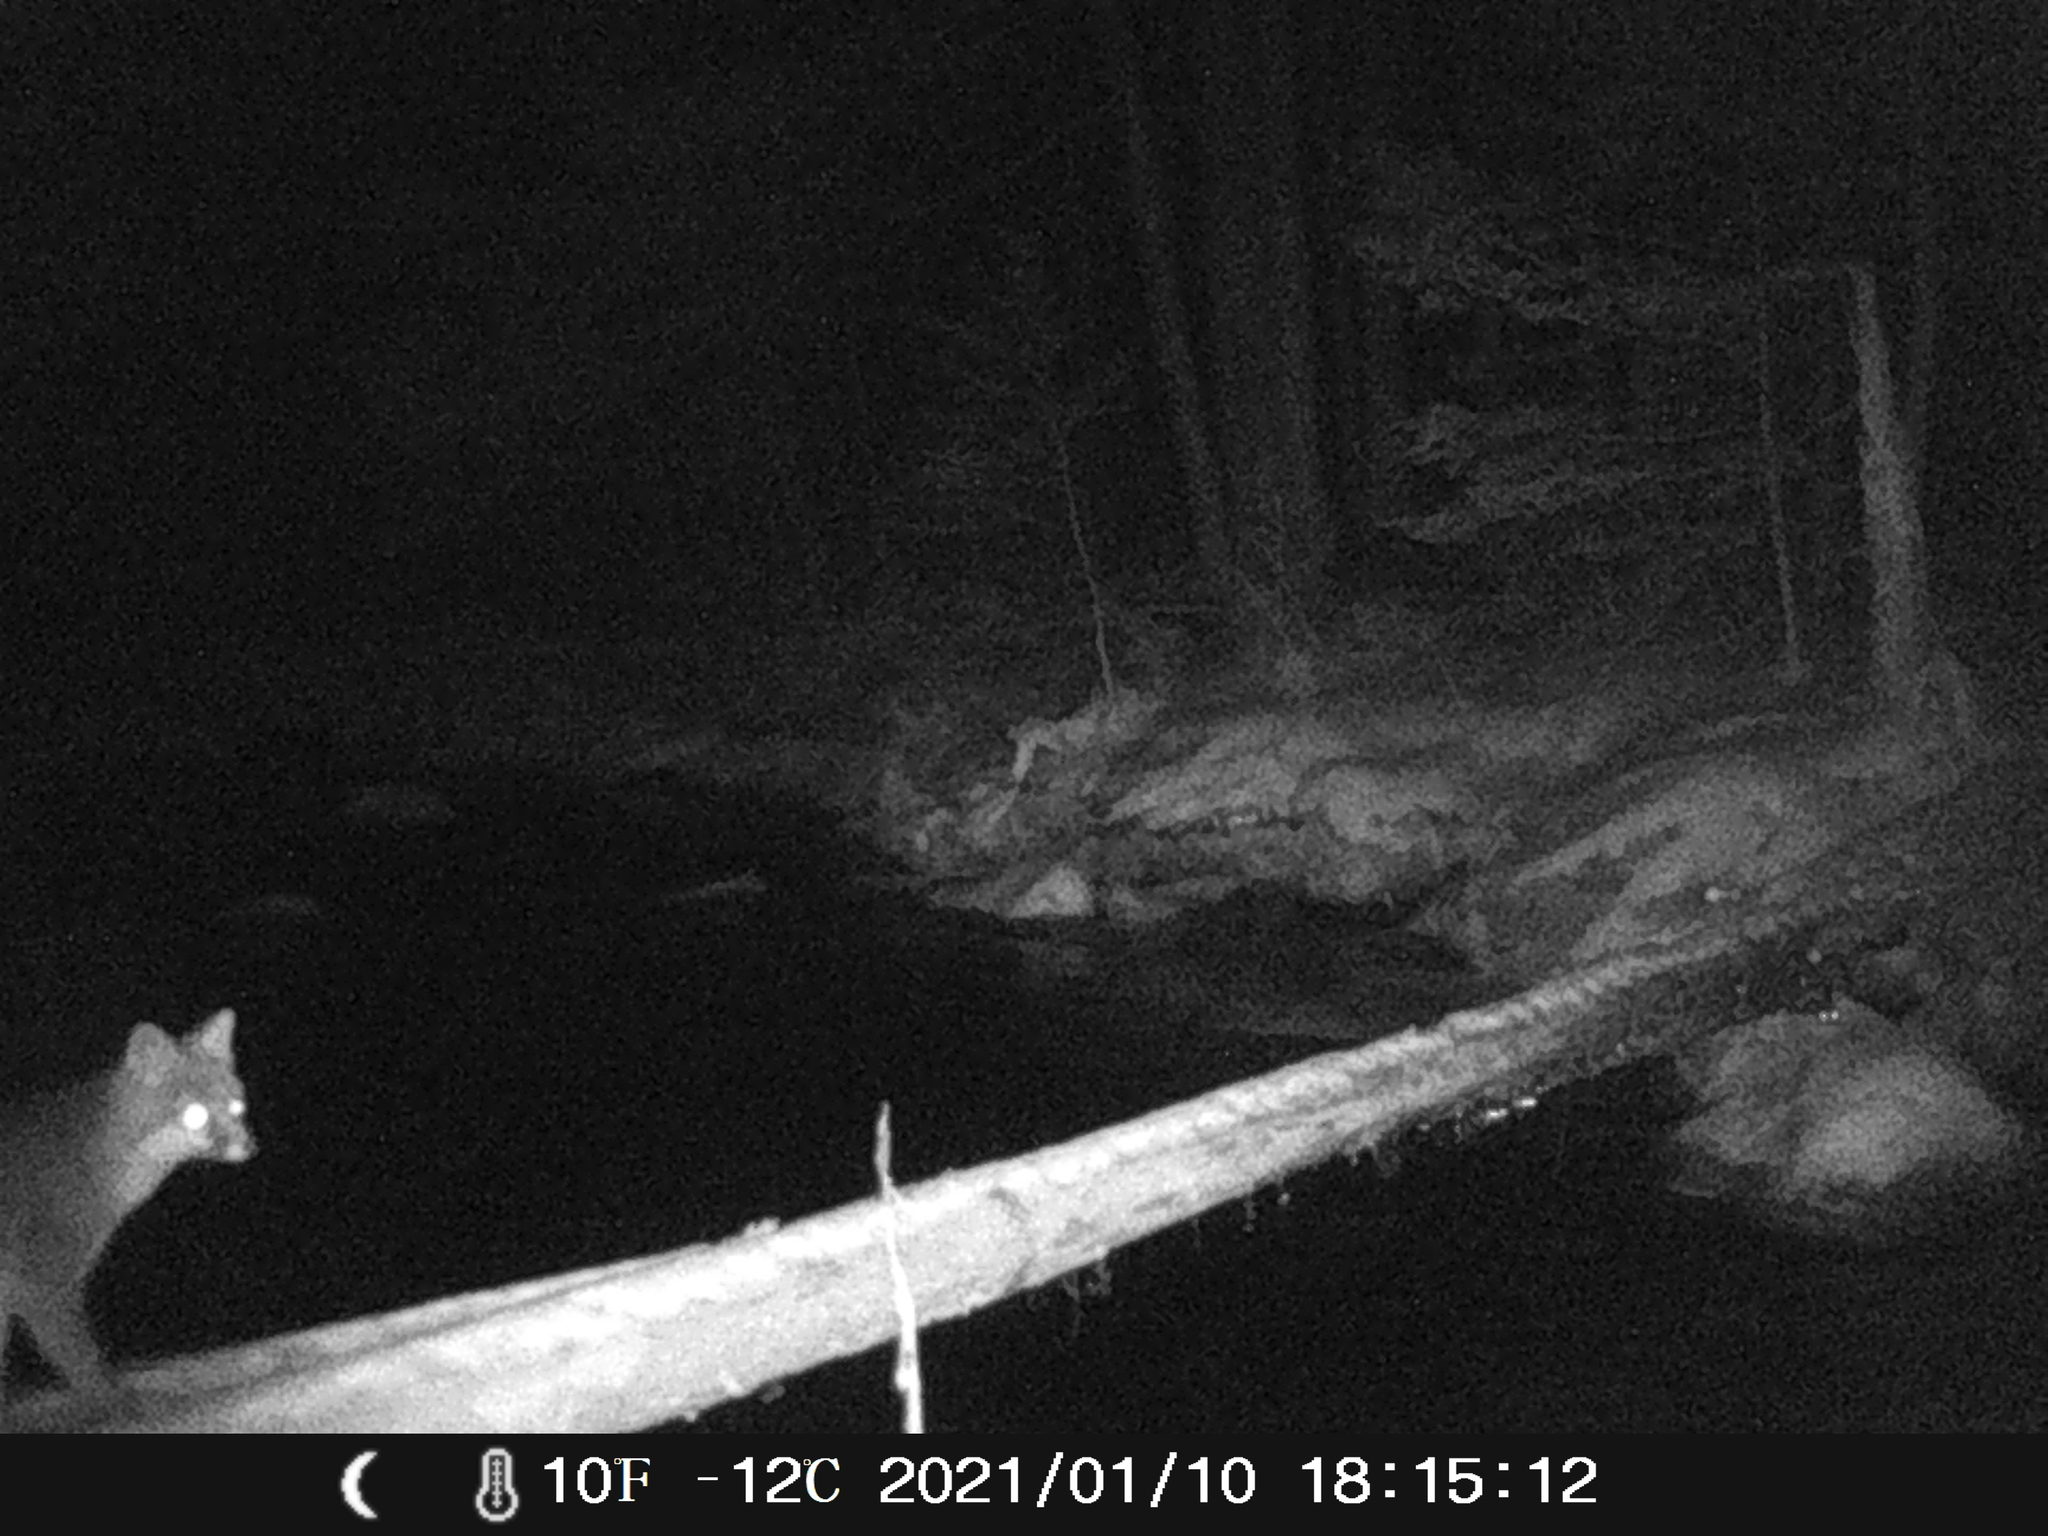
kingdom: Animalia
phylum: Chordata
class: Mammalia
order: Carnivora
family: Canidae
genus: Urocyon
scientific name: Urocyon cinereoargenteus
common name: Gray fox
